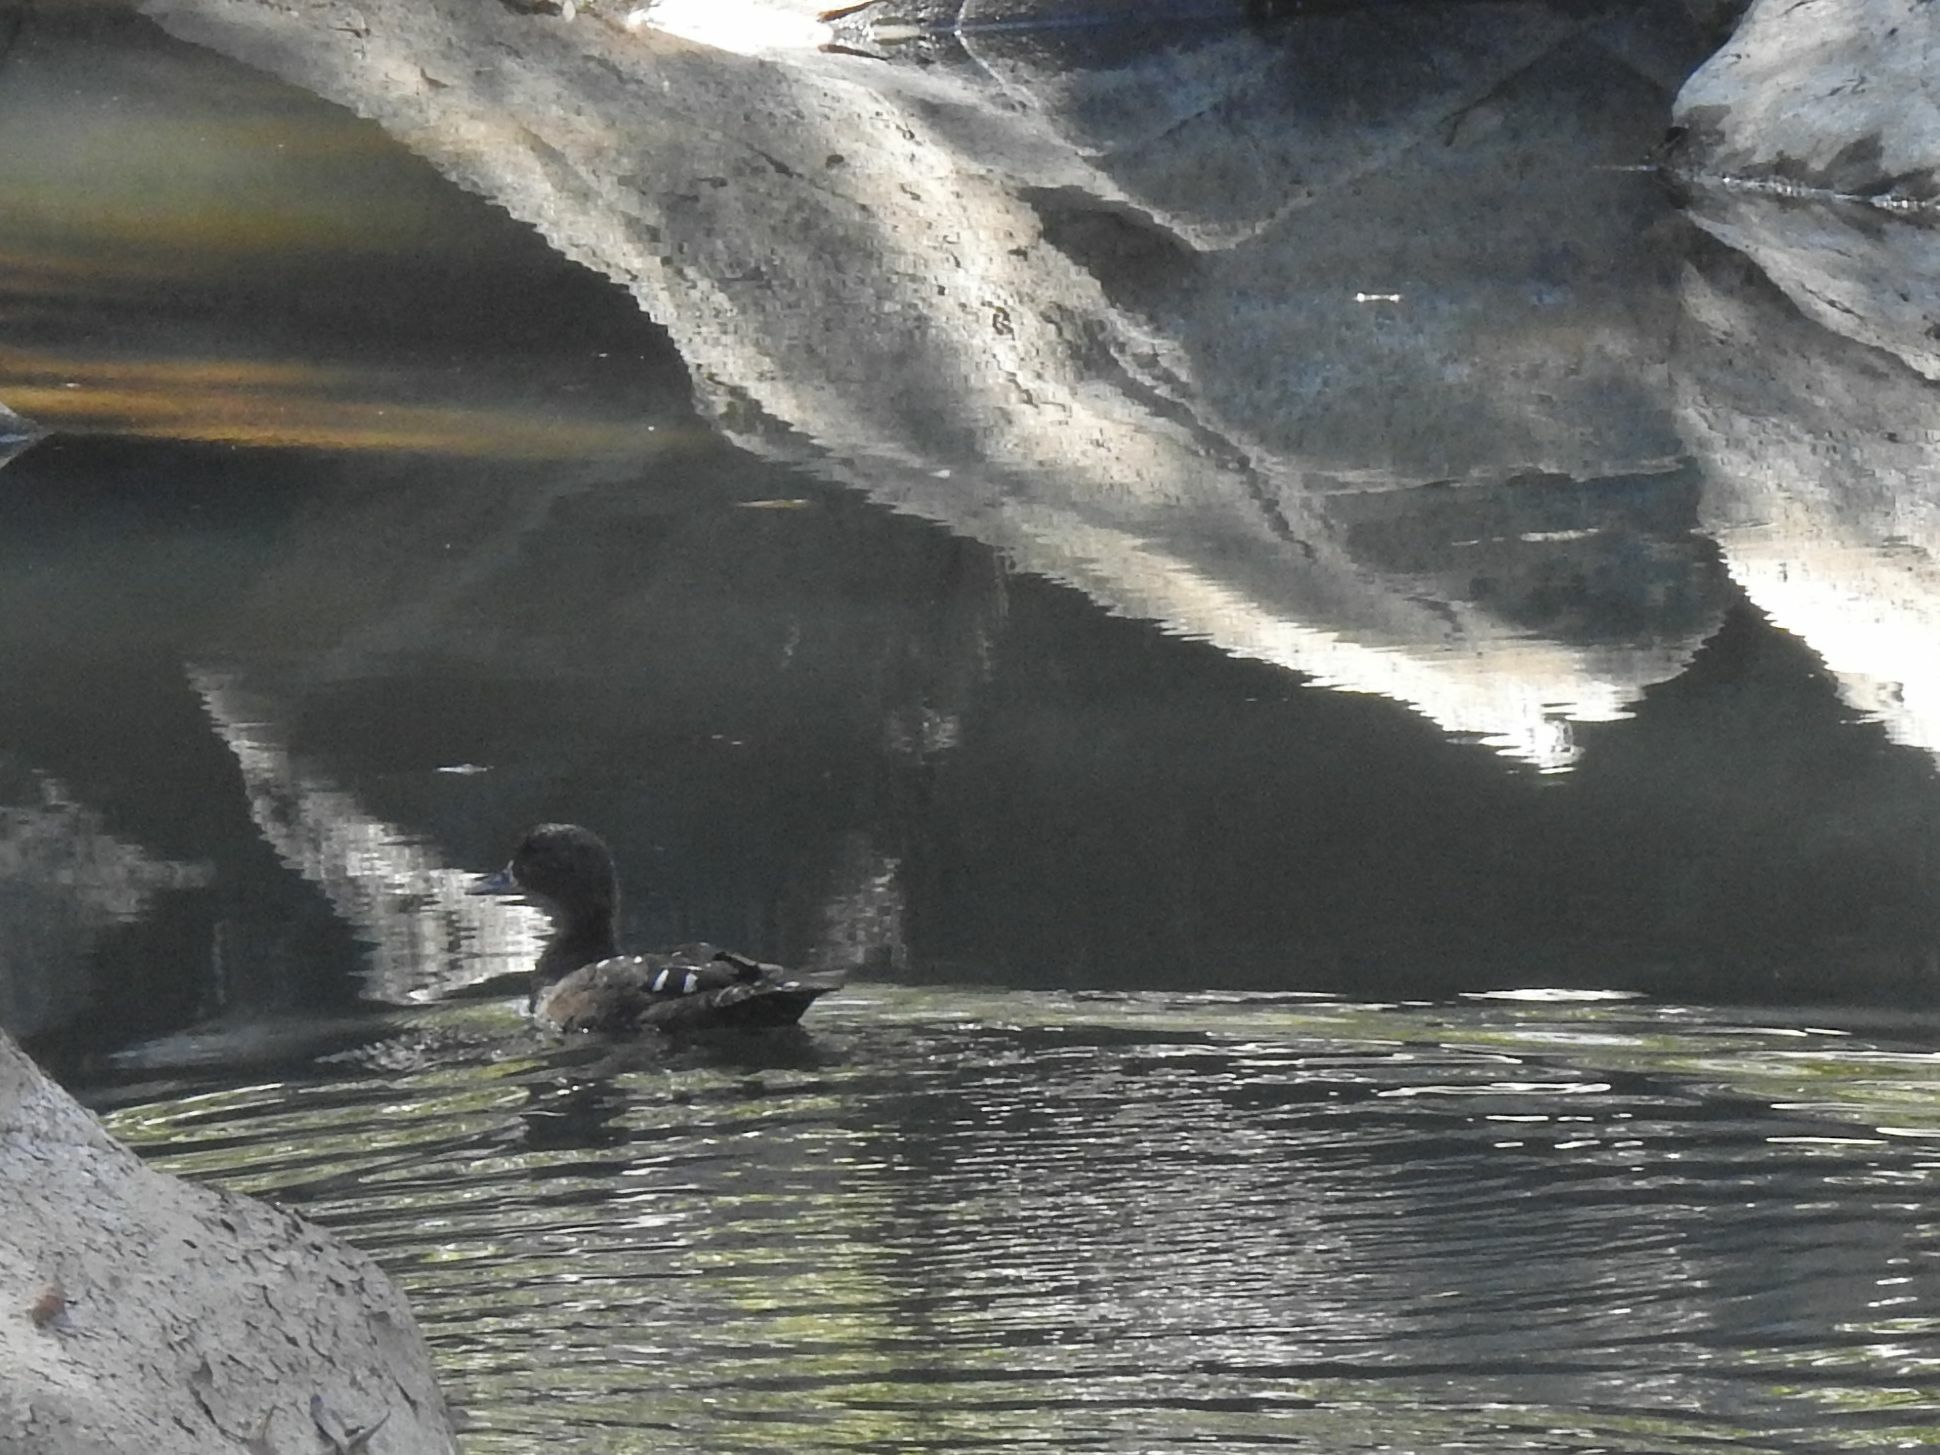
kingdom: Animalia
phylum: Chordata
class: Aves
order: Anseriformes
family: Anatidae
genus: Anas
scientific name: Anas sparsa
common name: African black duck
